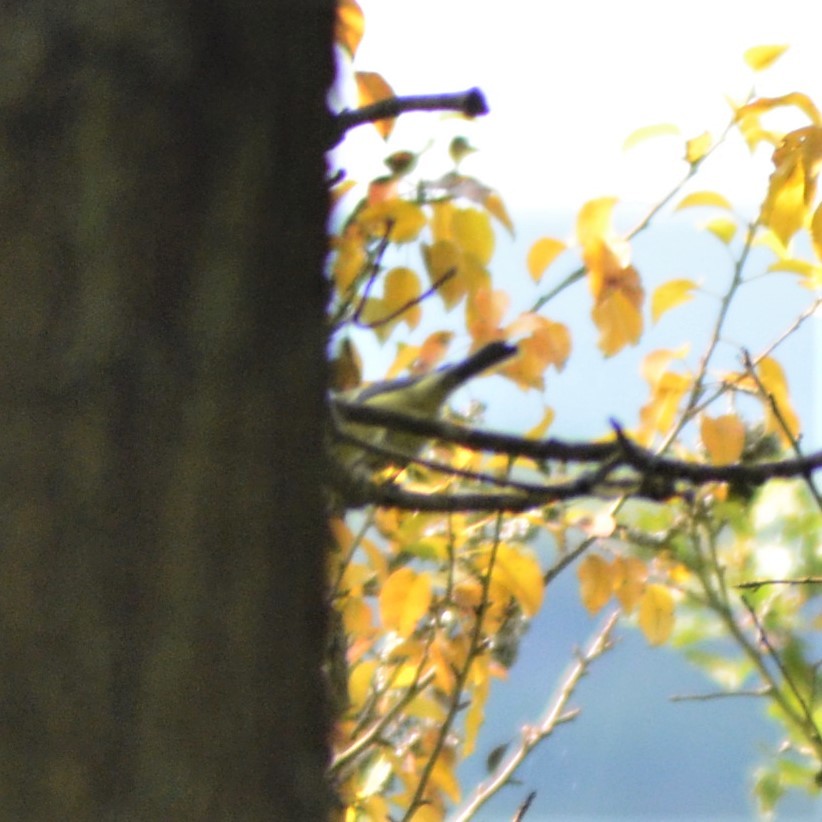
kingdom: Animalia
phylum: Chordata
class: Aves
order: Passeriformes
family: Paridae
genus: Cyanistes
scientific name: Cyanistes caeruleus
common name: Eurasian blue tit
